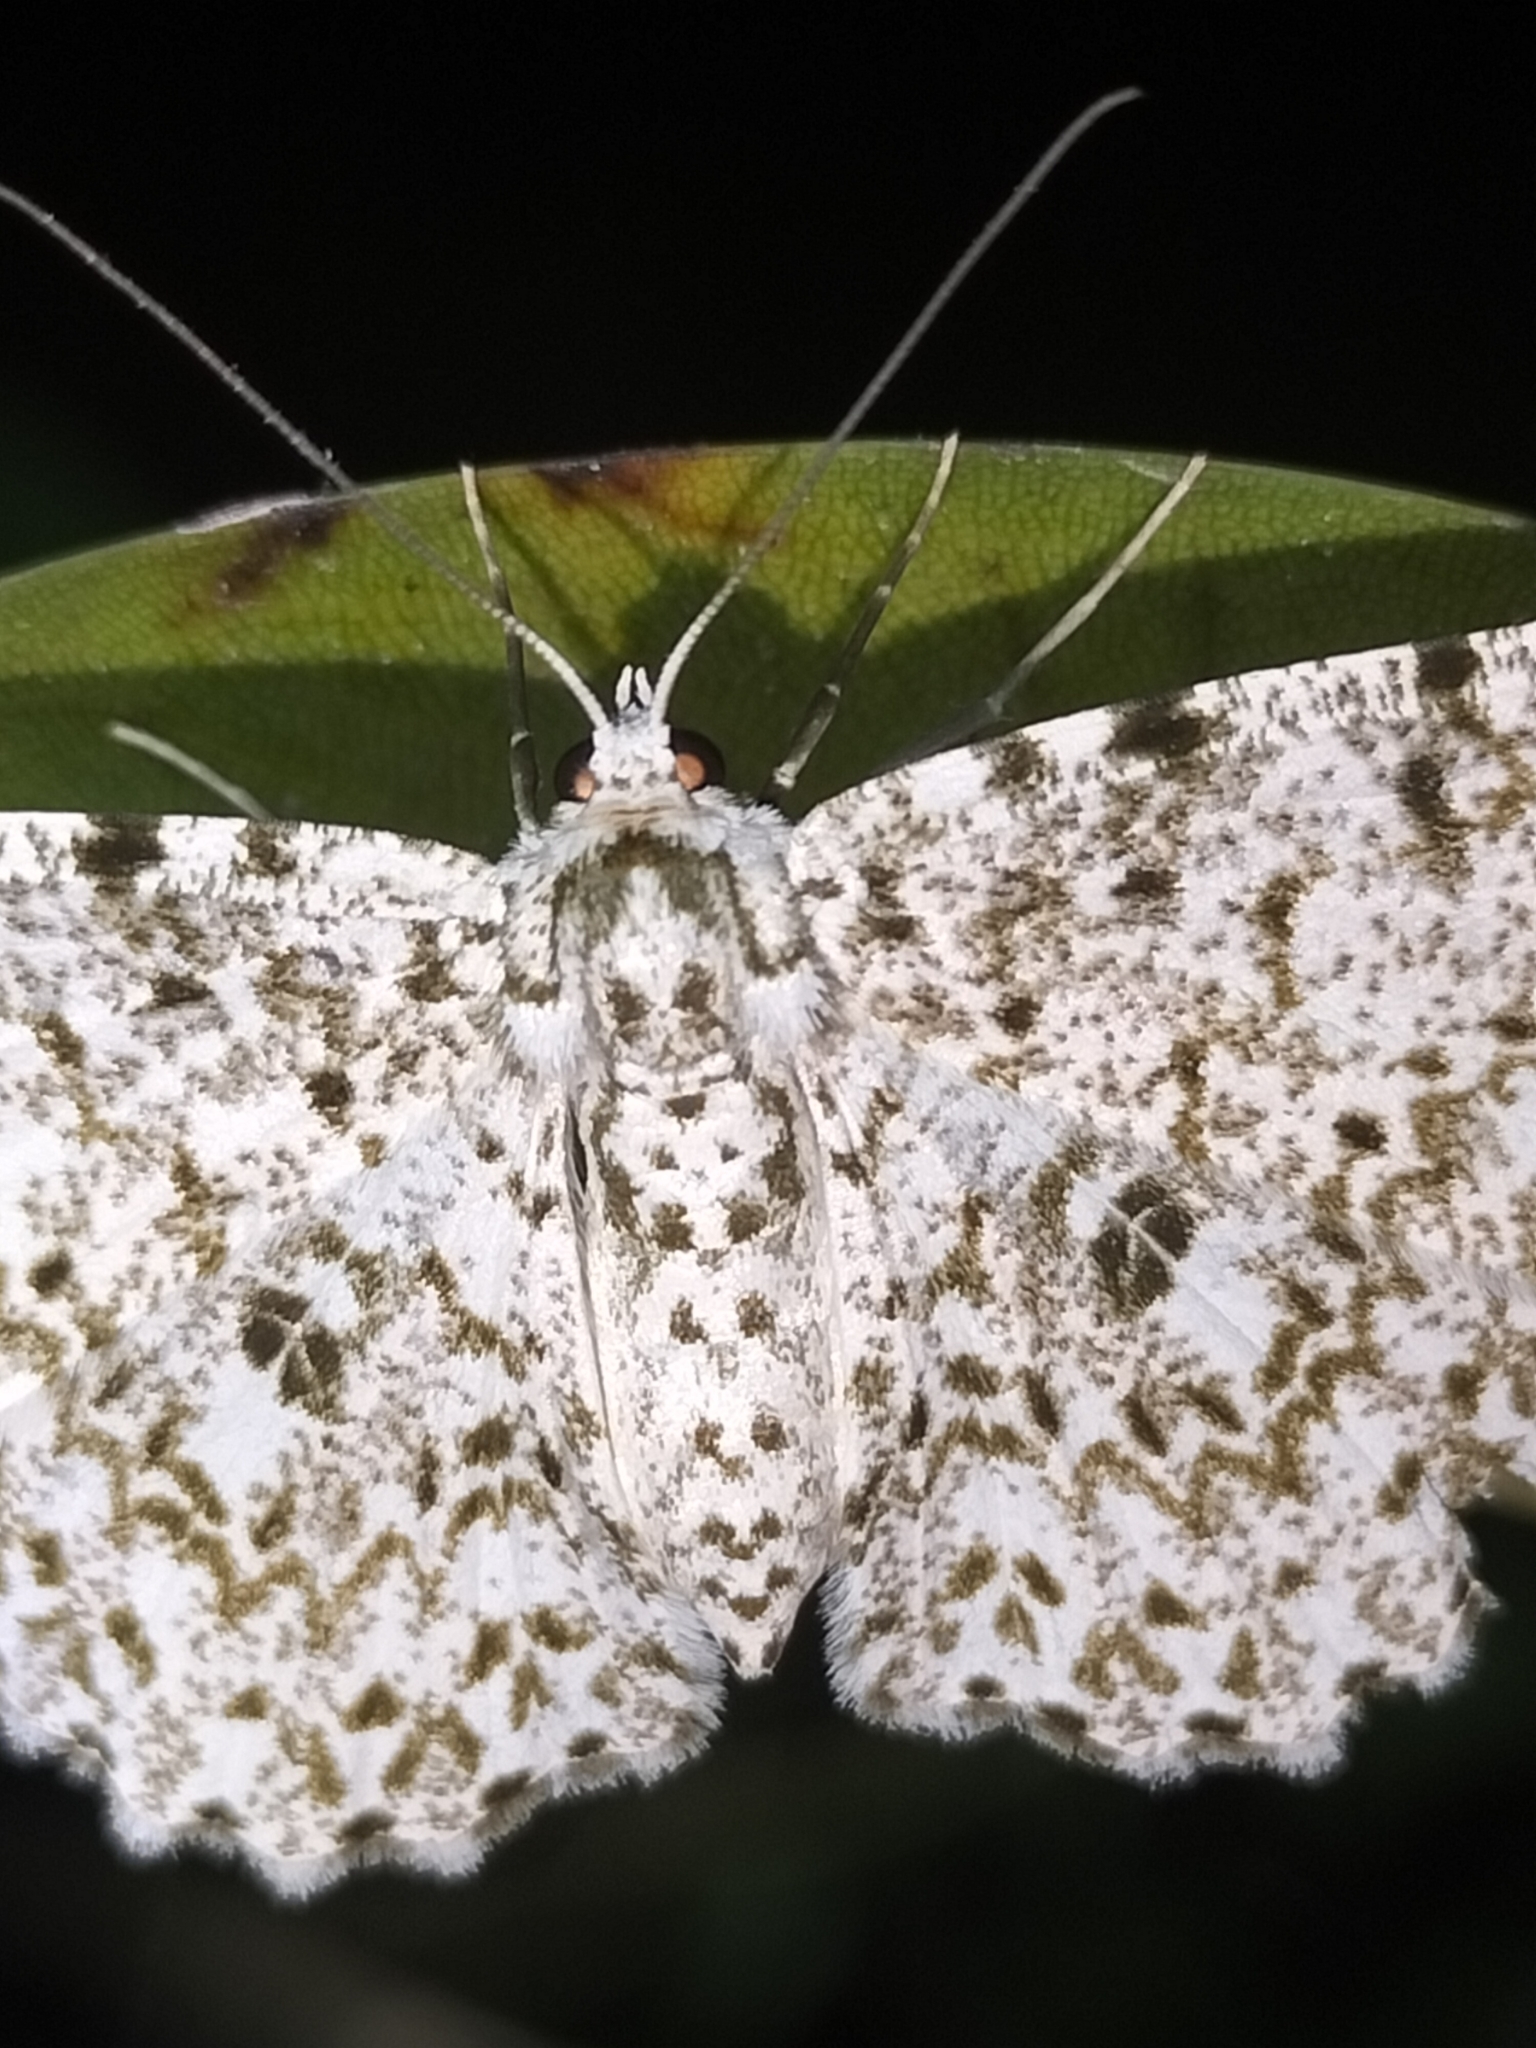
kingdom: Animalia
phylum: Arthropoda
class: Insecta
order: Lepidoptera
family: Geometridae
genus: Catoria
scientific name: Catoria camelaria
